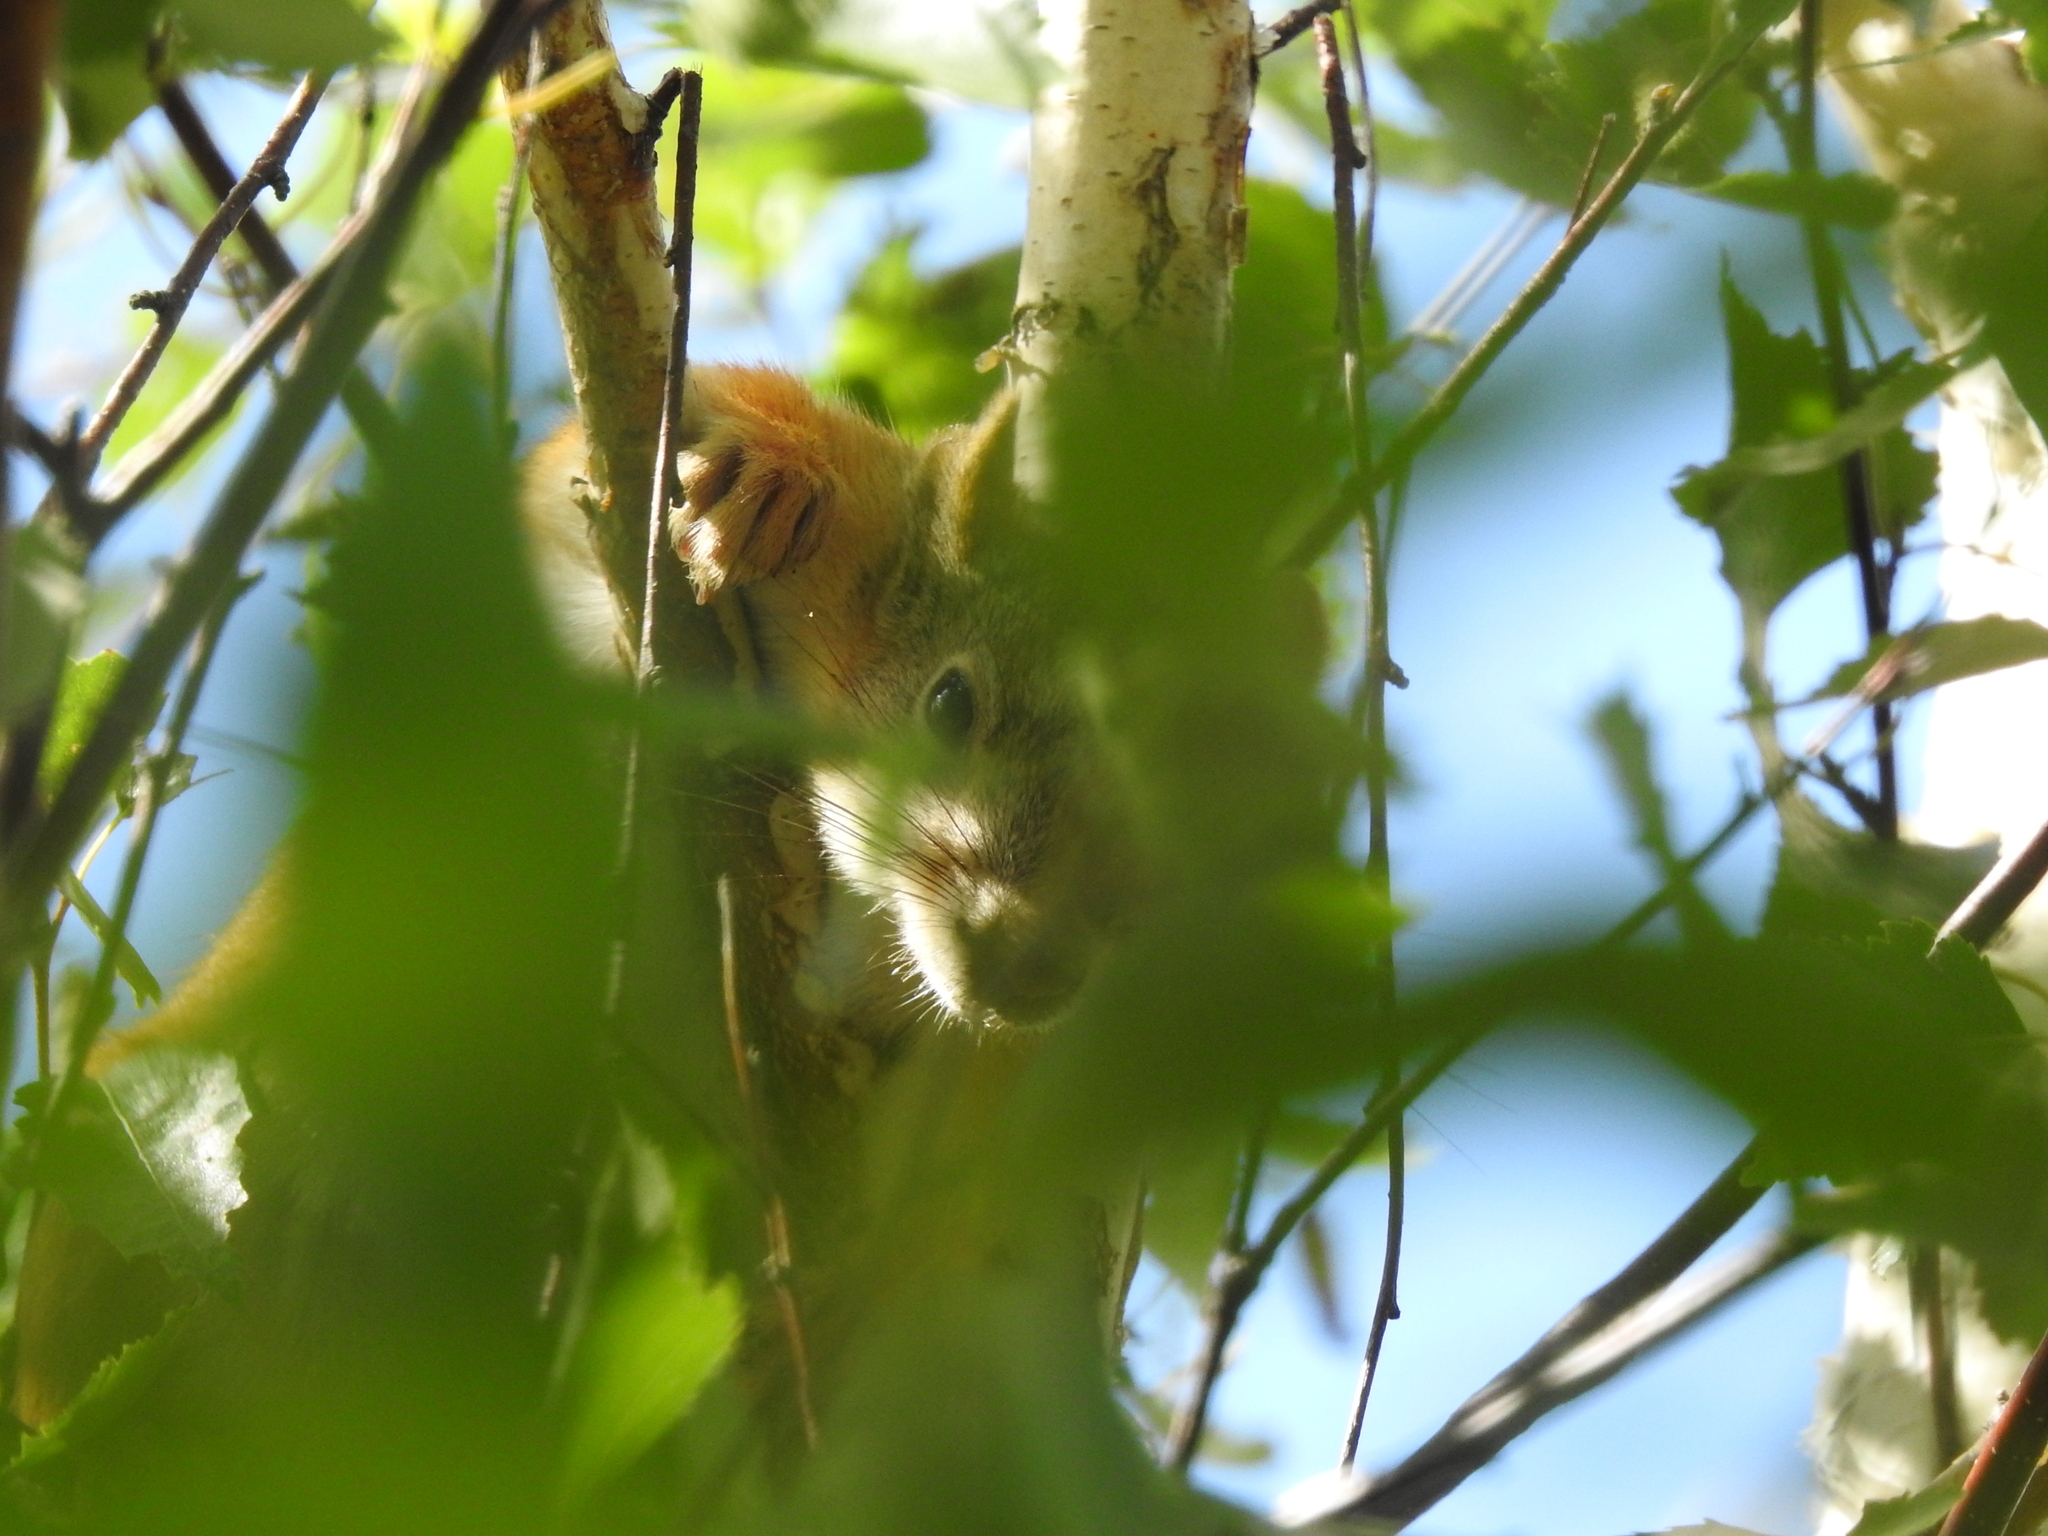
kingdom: Animalia
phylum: Chordata
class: Mammalia
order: Rodentia
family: Sciuridae
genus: Sciurus
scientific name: Sciurus vulgaris
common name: Eurasian red squirrel
